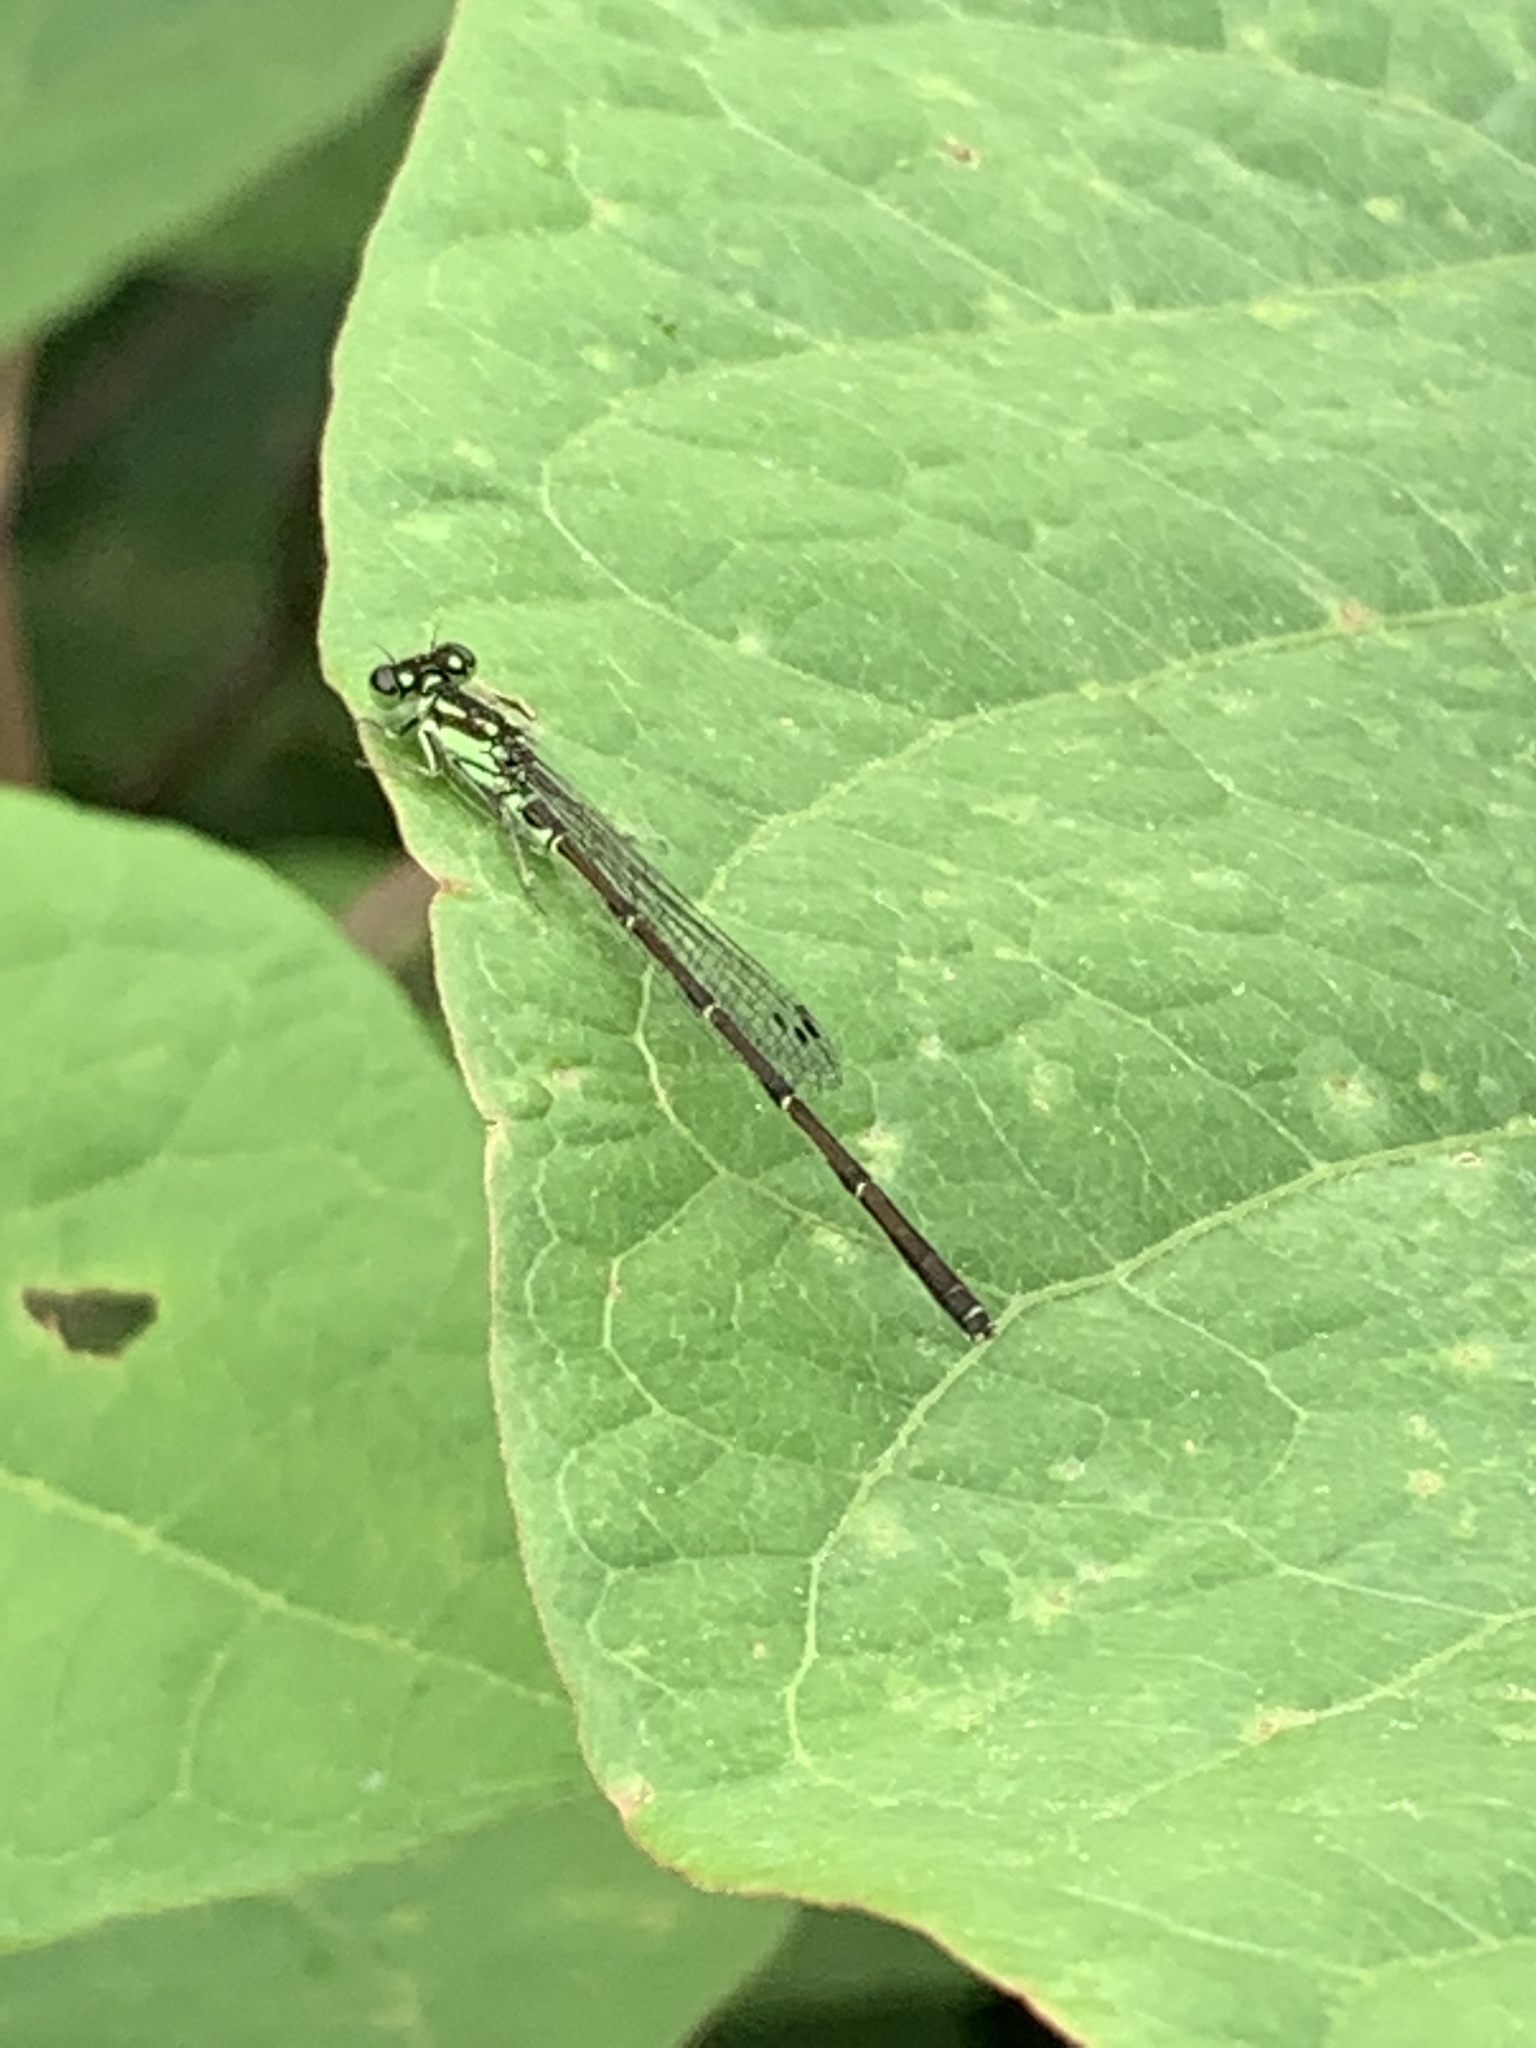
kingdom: Animalia
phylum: Arthropoda
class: Insecta
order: Odonata
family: Coenagrionidae
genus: Ischnura
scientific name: Ischnura posita
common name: Fragile forktail
